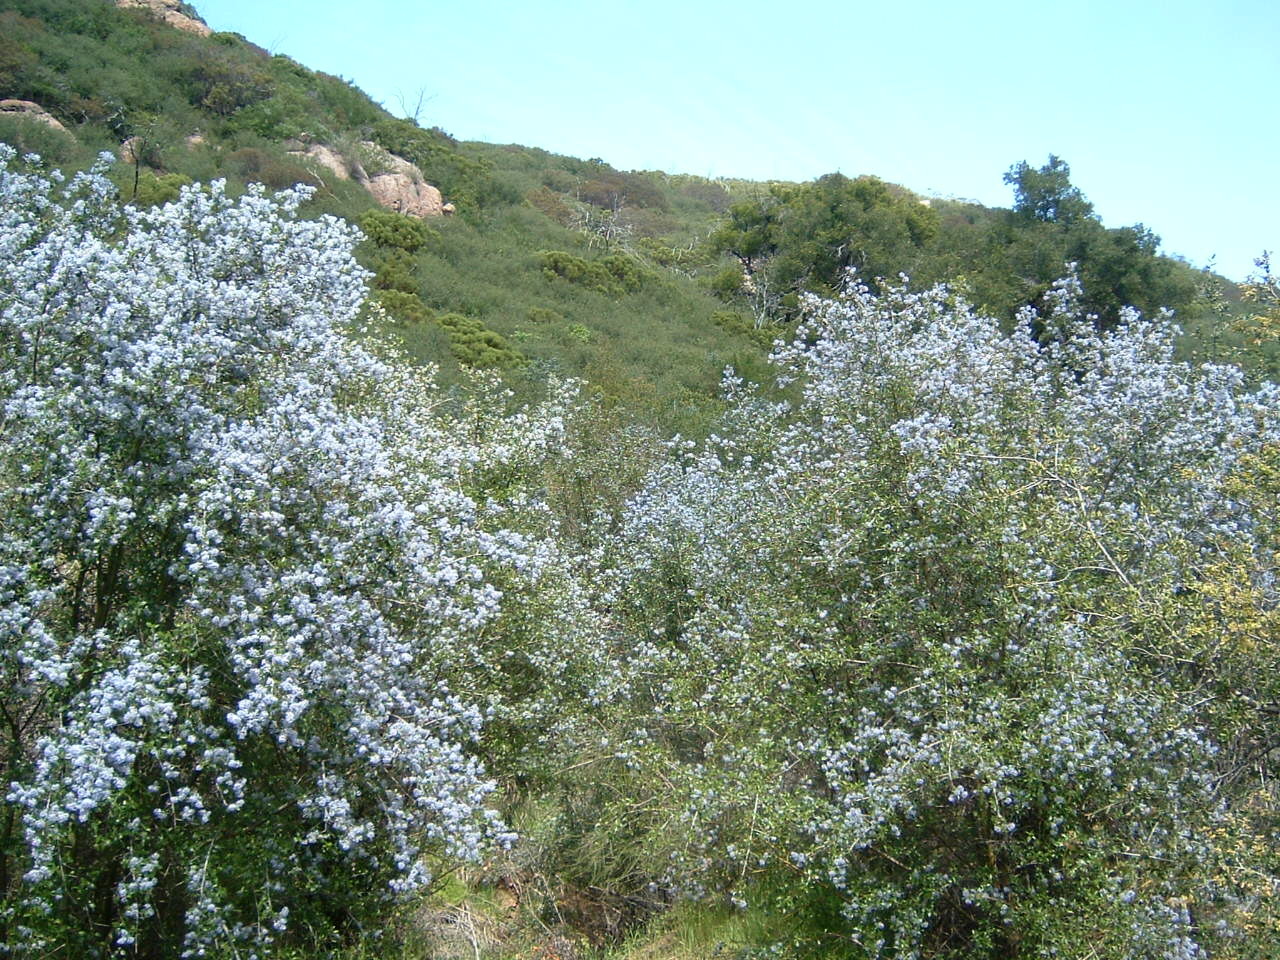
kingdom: Plantae
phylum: Tracheophyta
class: Magnoliopsida
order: Rosales
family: Rhamnaceae
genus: Ceanothus
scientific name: Ceanothus oliganthus
